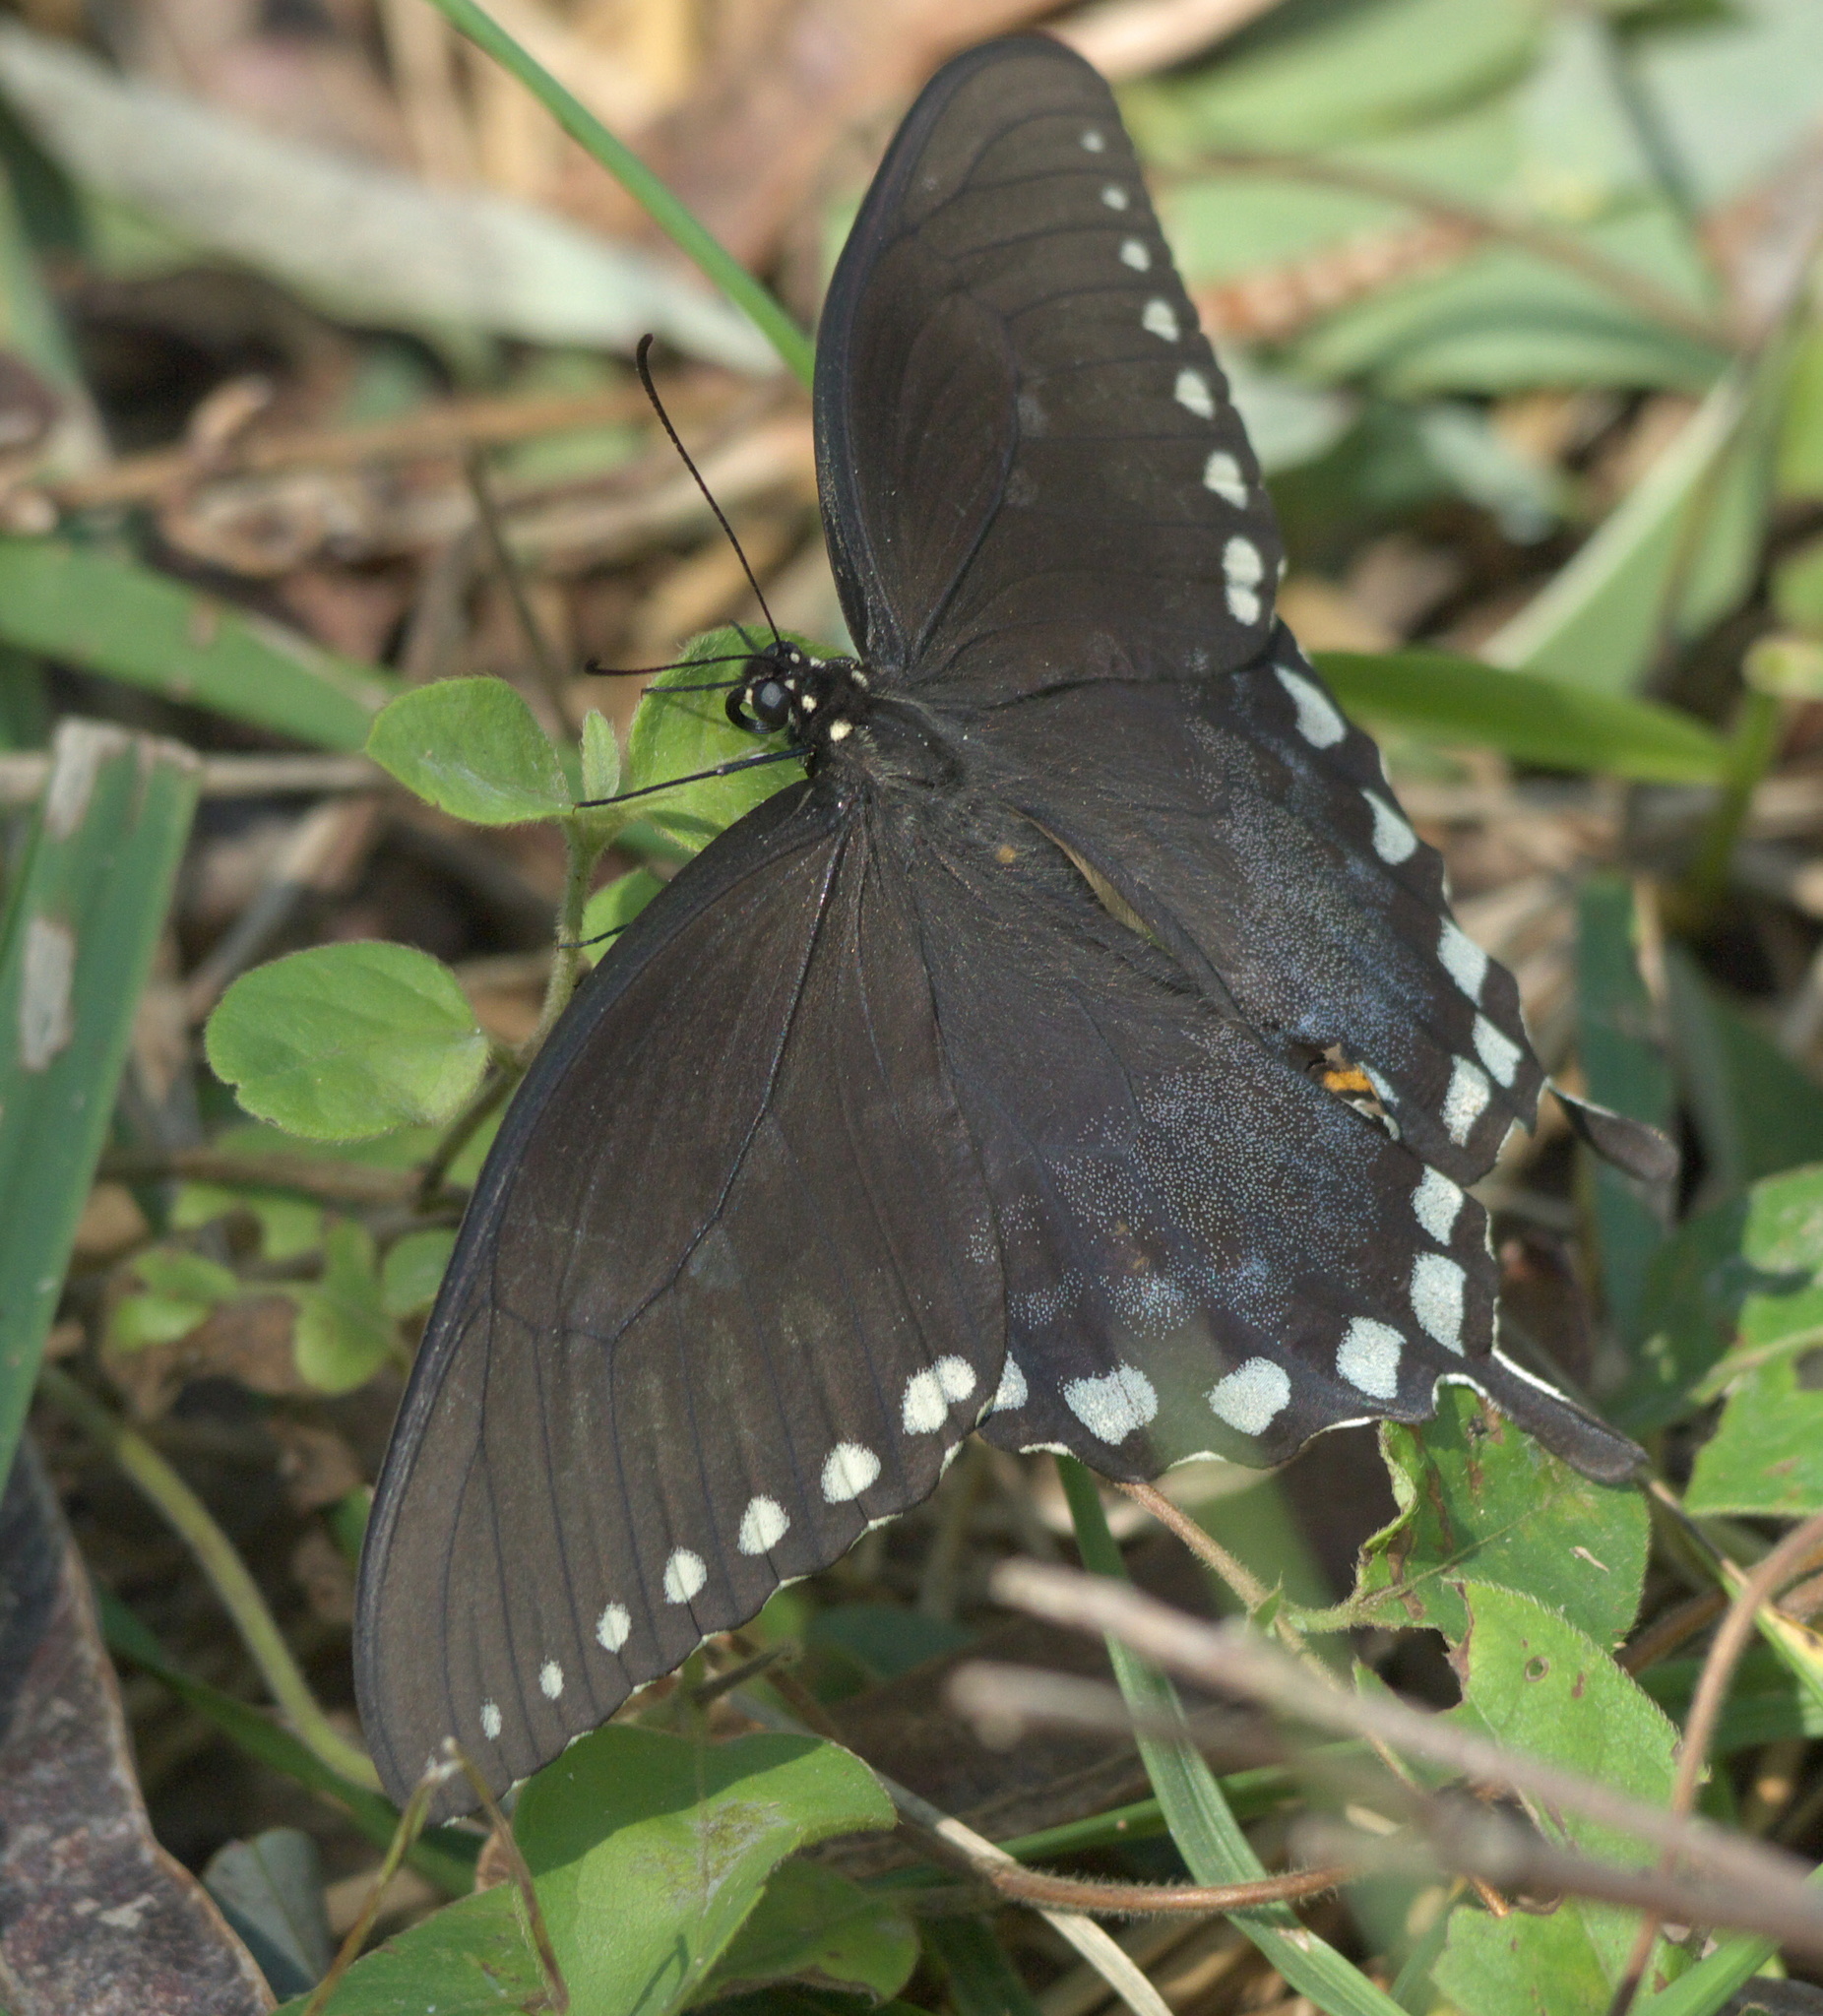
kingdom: Animalia
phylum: Arthropoda
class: Insecta
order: Lepidoptera
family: Papilionidae
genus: Papilio
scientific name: Papilio troilus
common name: Spicebush swallowtail
